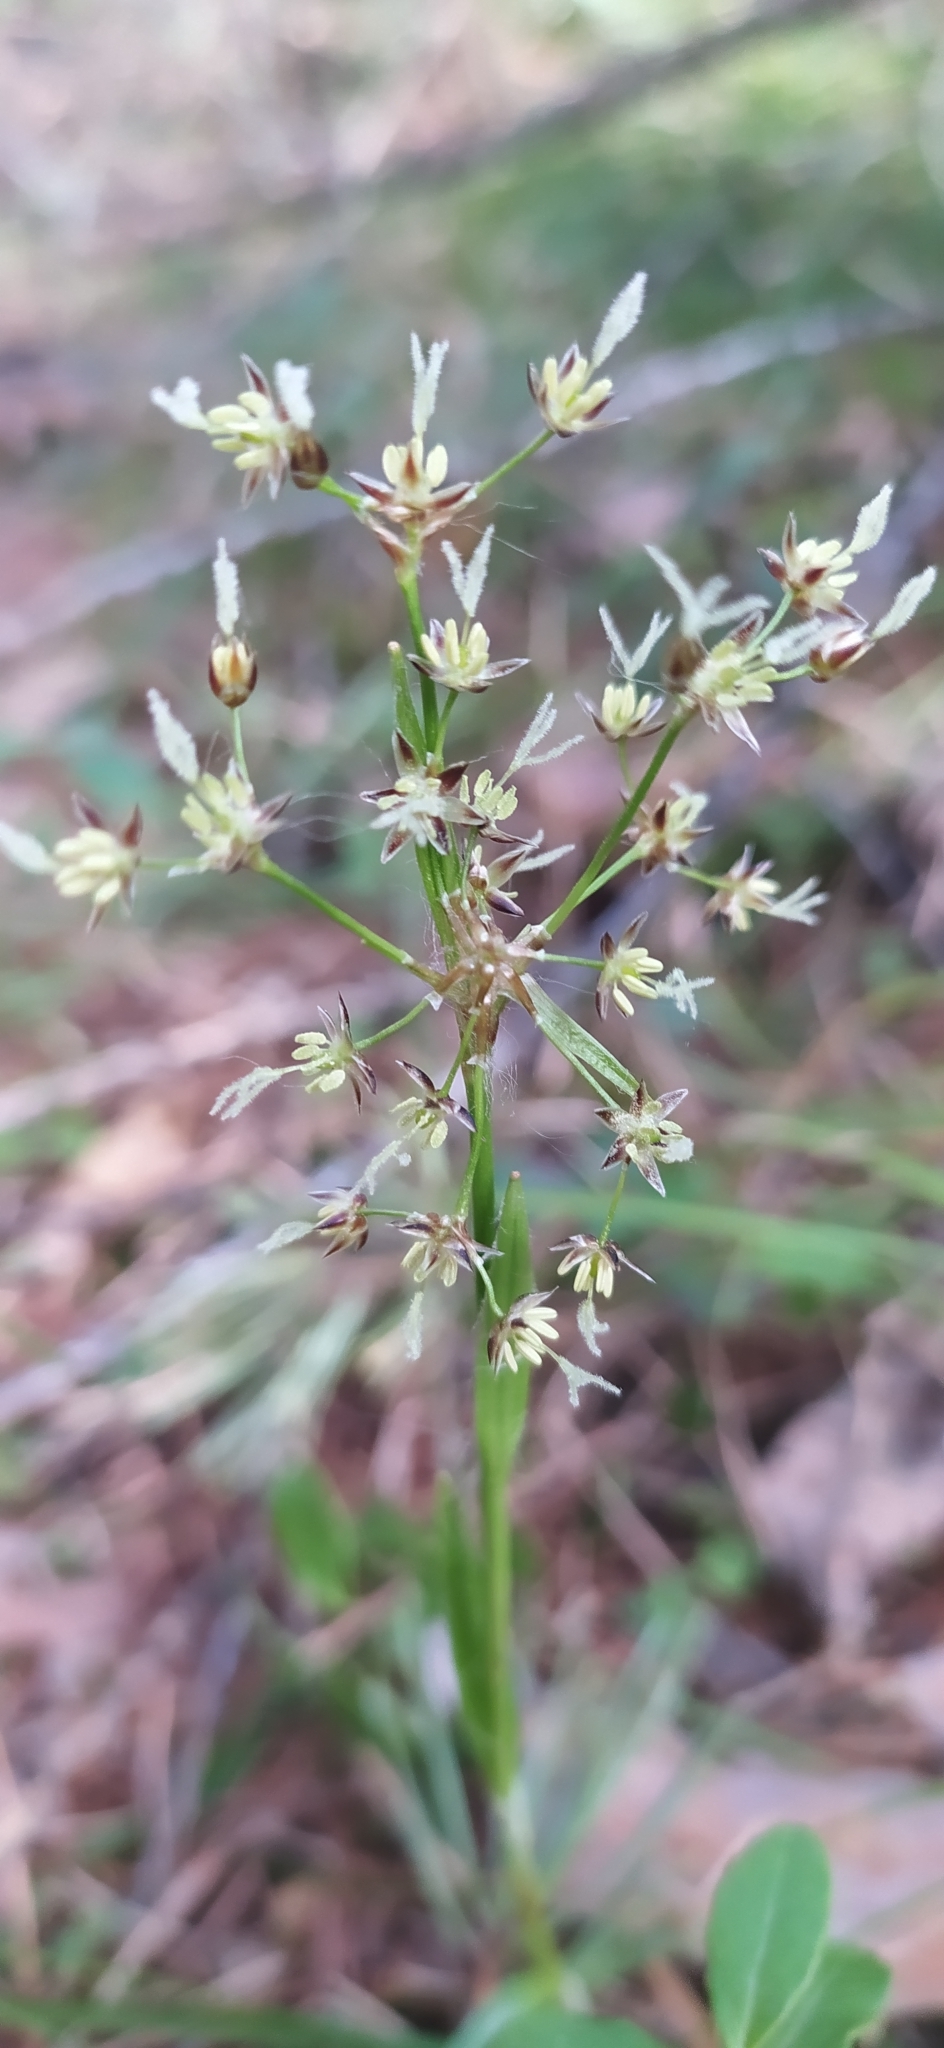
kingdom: Plantae
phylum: Tracheophyta
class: Liliopsida
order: Poales
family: Juncaceae
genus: Luzula
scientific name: Luzula pilosa
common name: Hairy wood-rush
